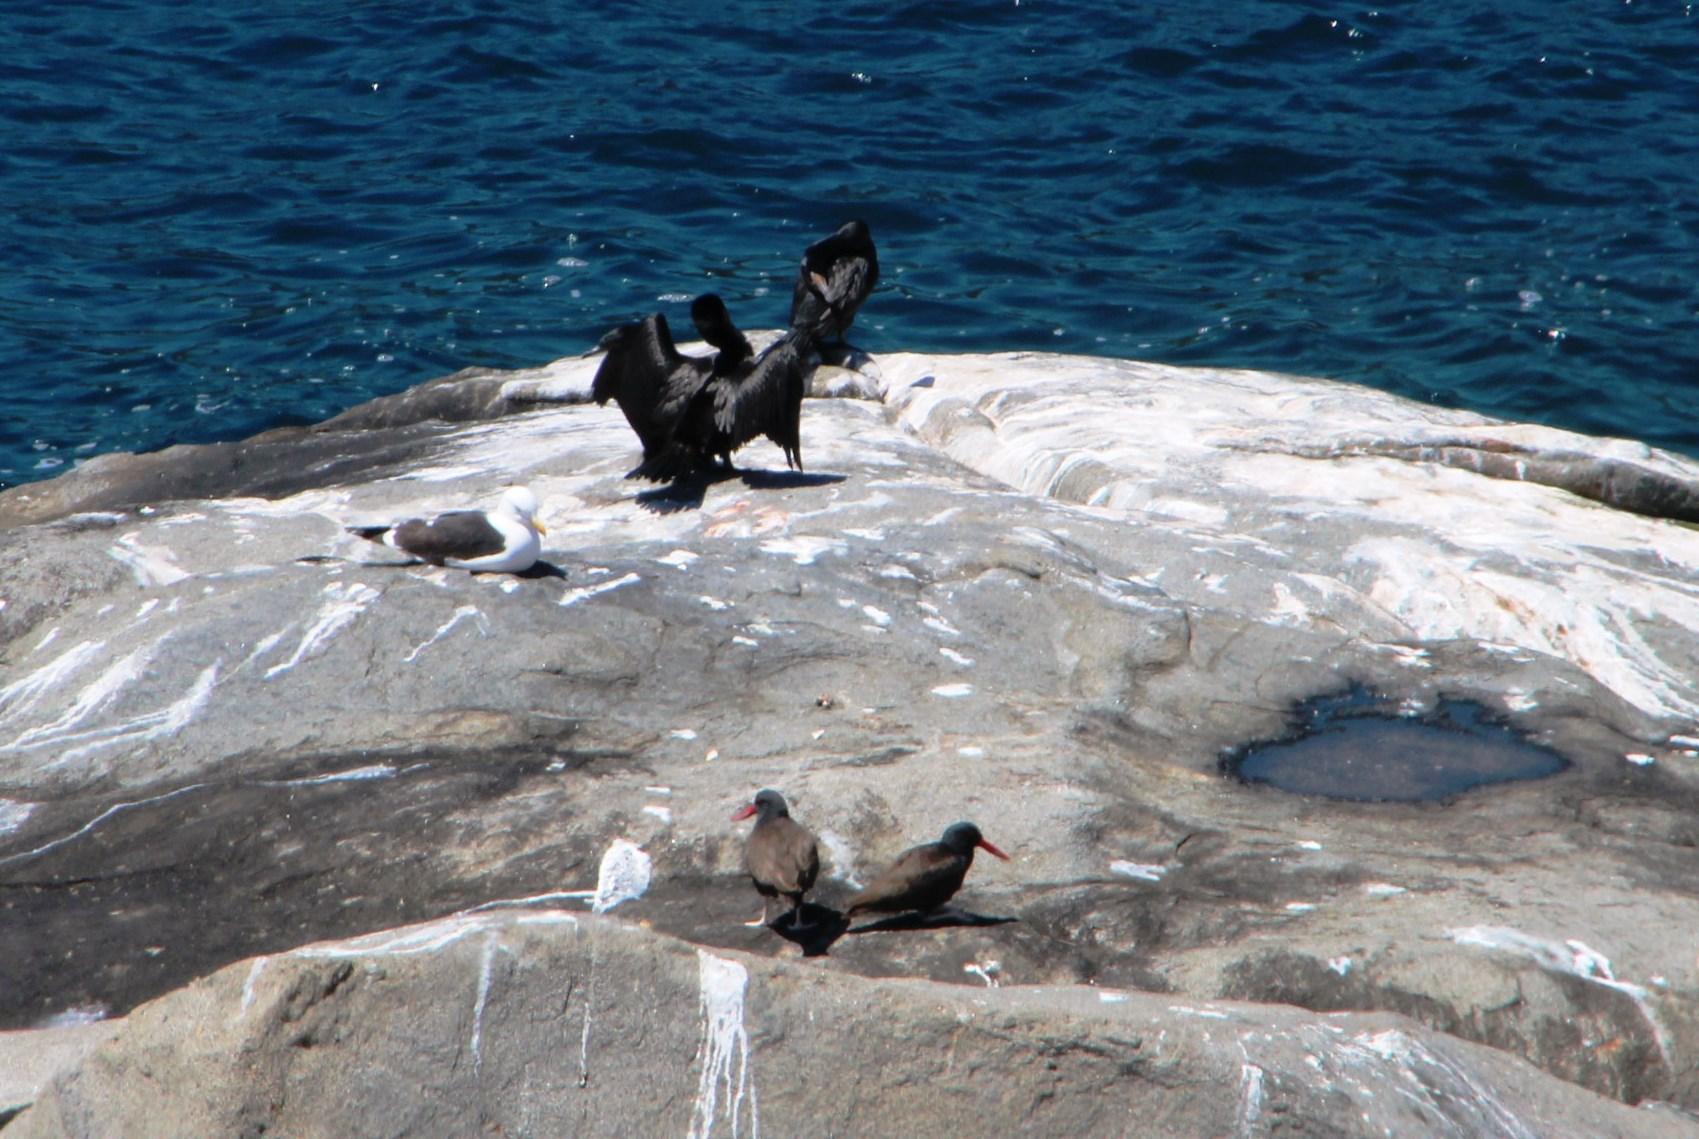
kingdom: Animalia
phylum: Chordata
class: Aves
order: Suliformes
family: Phalacrocoracidae
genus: Phalacrocorax
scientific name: Phalacrocorax brasilianus
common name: Neotropic cormorant
